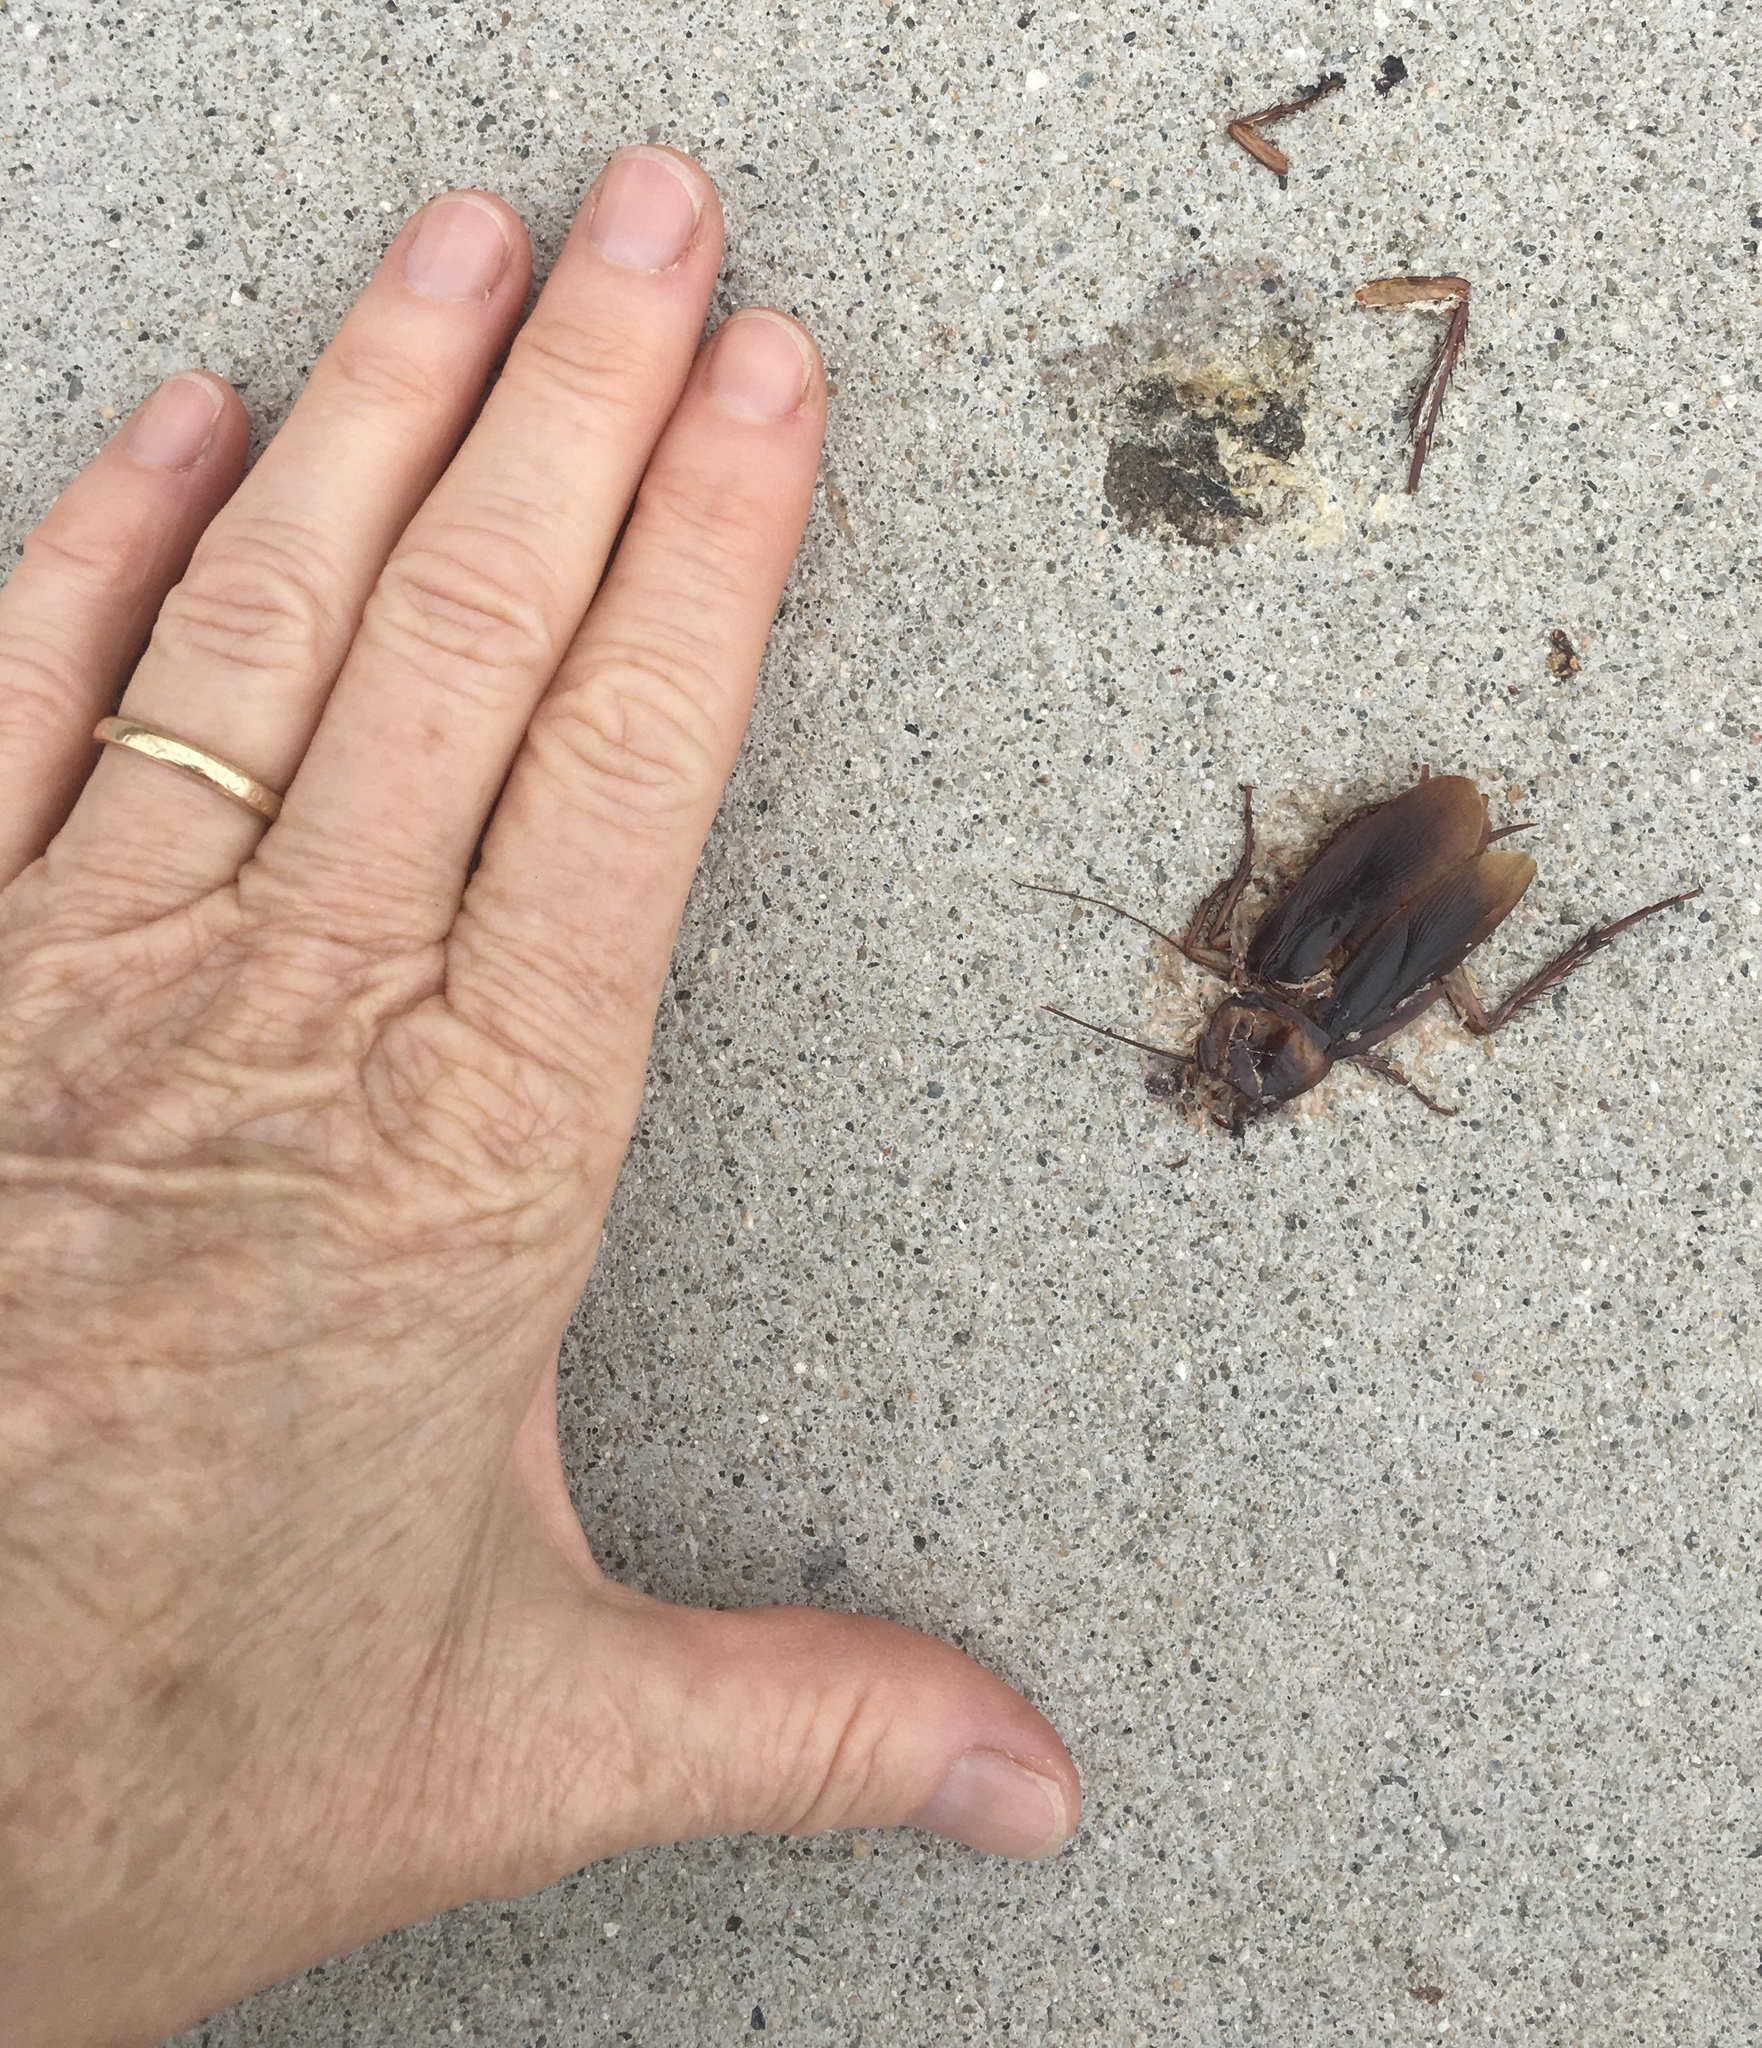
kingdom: Animalia
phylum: Arthropoda
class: Insecta
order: Blattodea
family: Blattidae
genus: Periplaneta
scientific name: Periplaneta americana
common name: American cockroach
